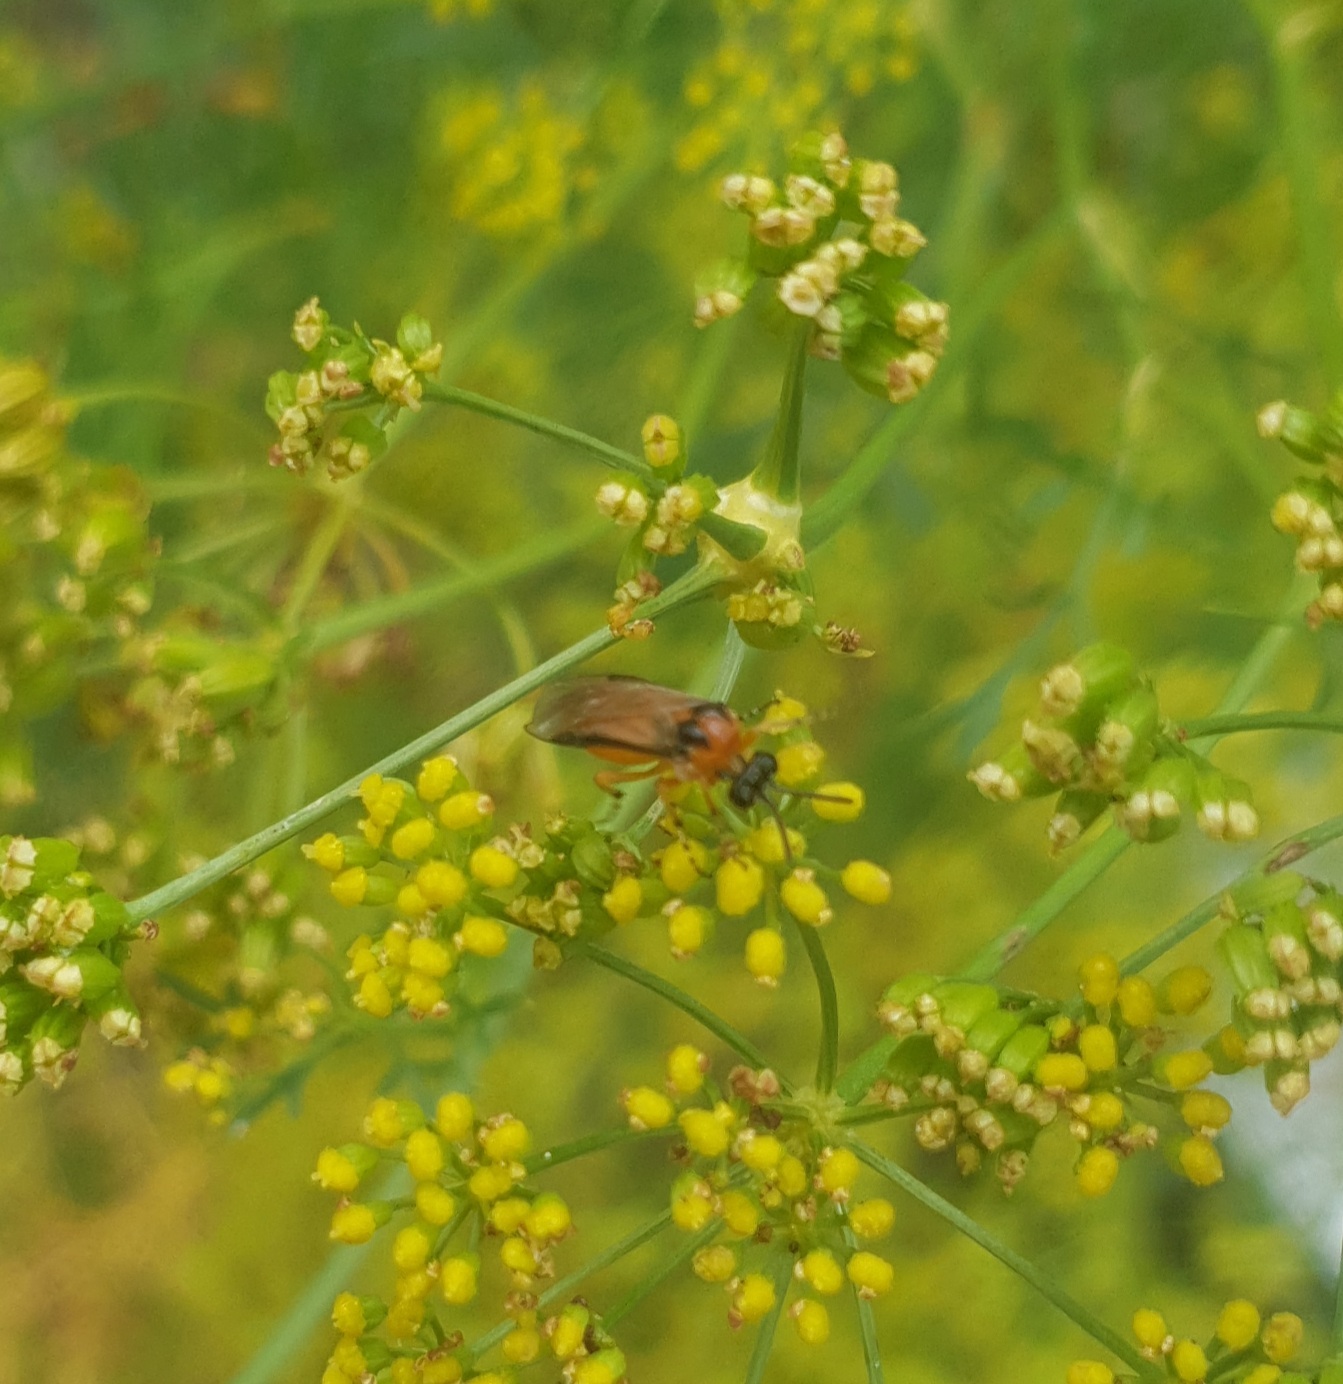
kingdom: Animalia
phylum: Arthropoda
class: Insecta
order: Hymenoptera
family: Tenthredinidae
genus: Athalia
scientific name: Athalia rosae
